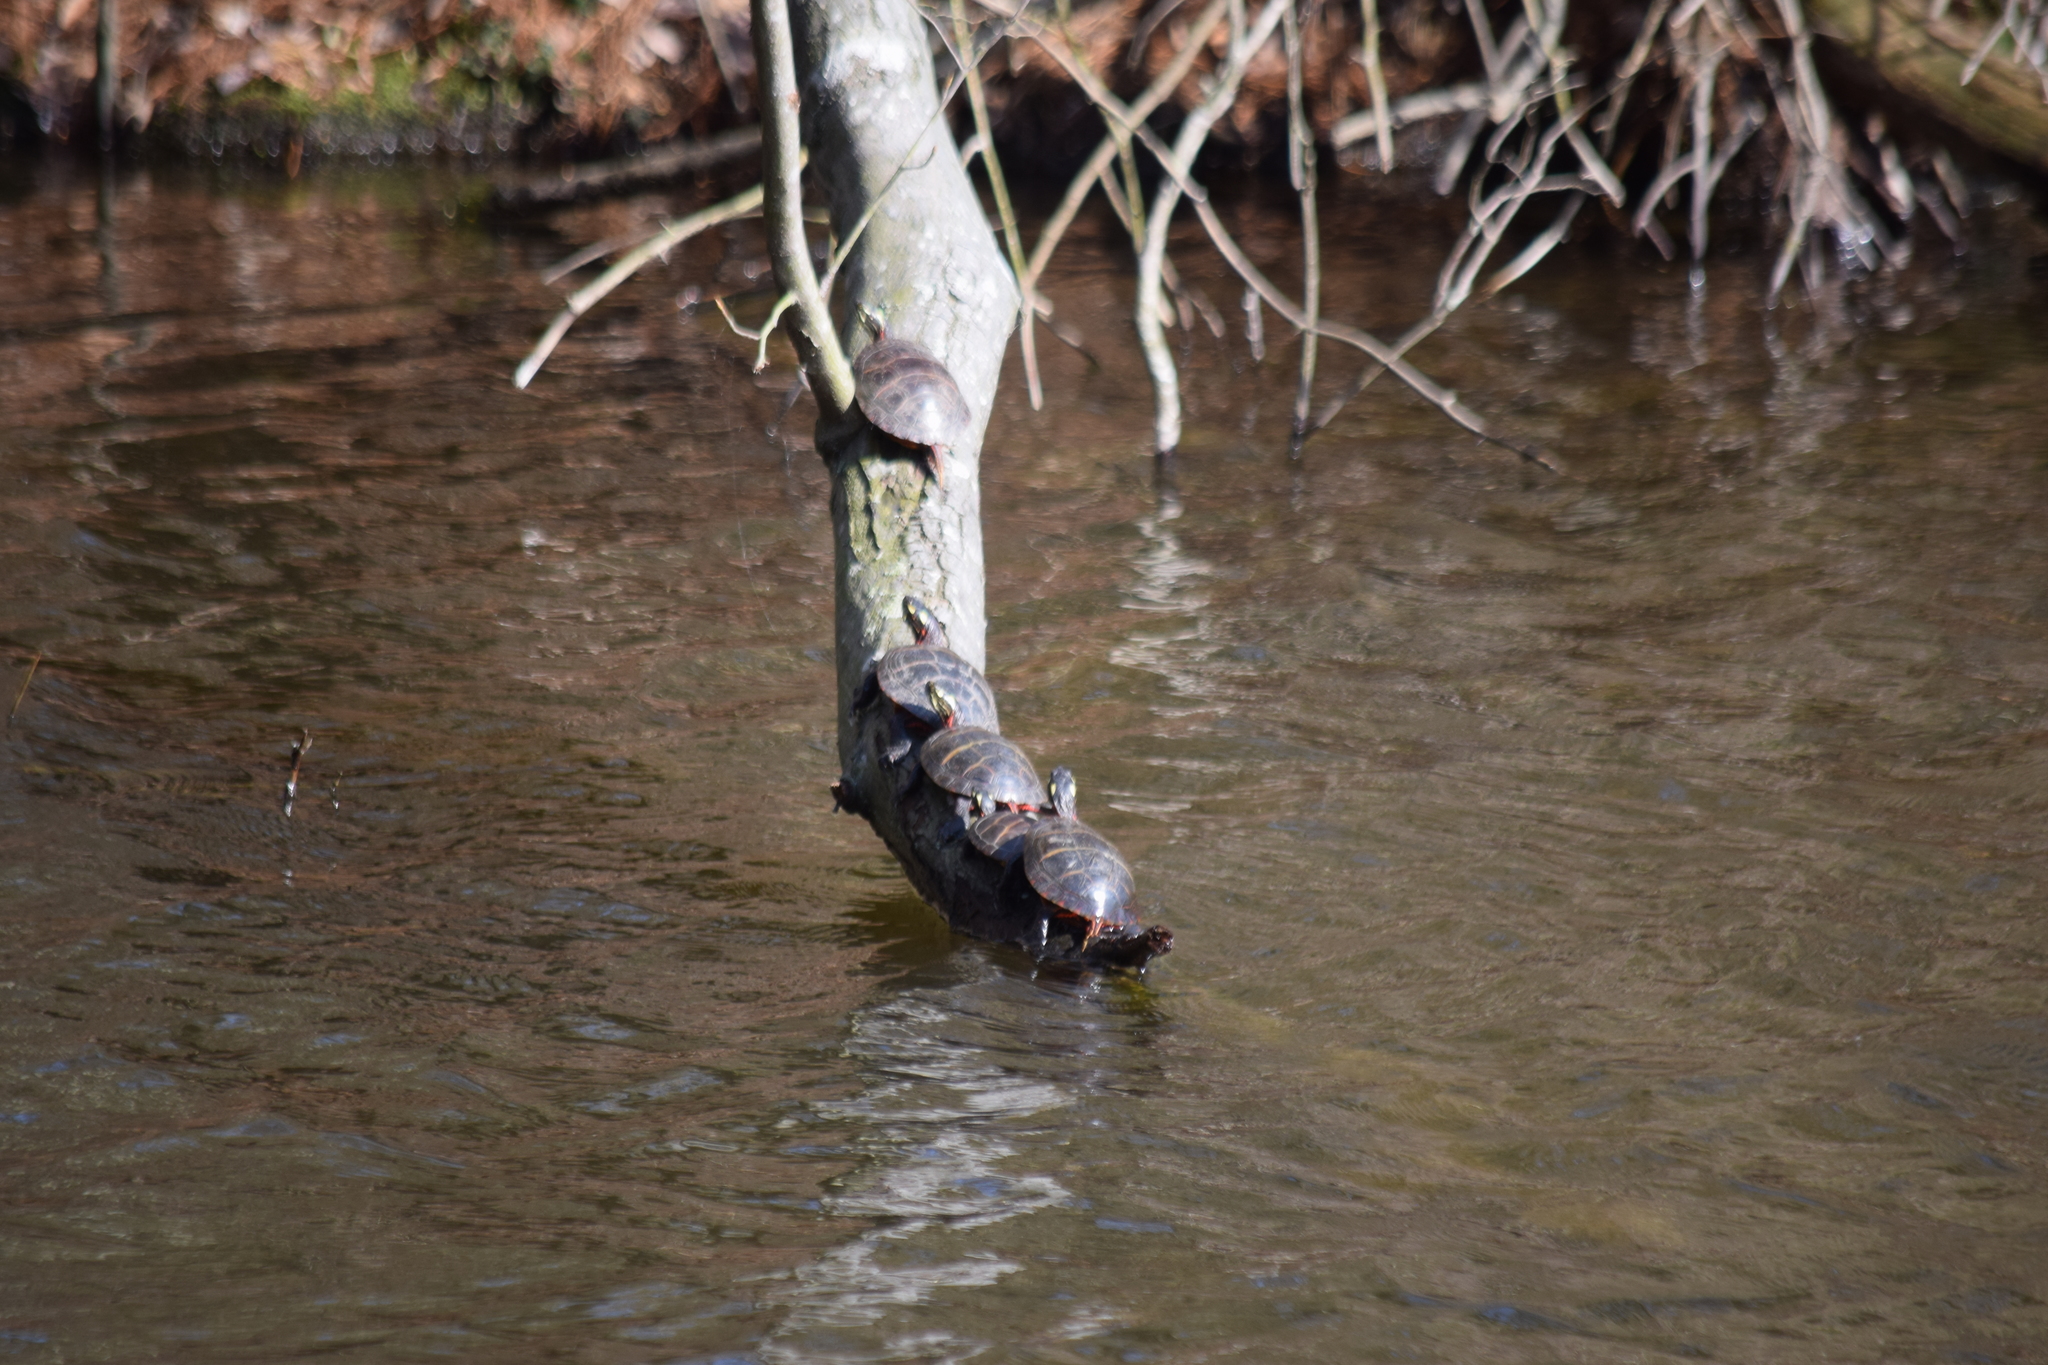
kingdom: Animalia
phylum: Chordata
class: Testudines
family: Emydidae
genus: Chrysemys
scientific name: Chrysemys picta
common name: Painted turtle
